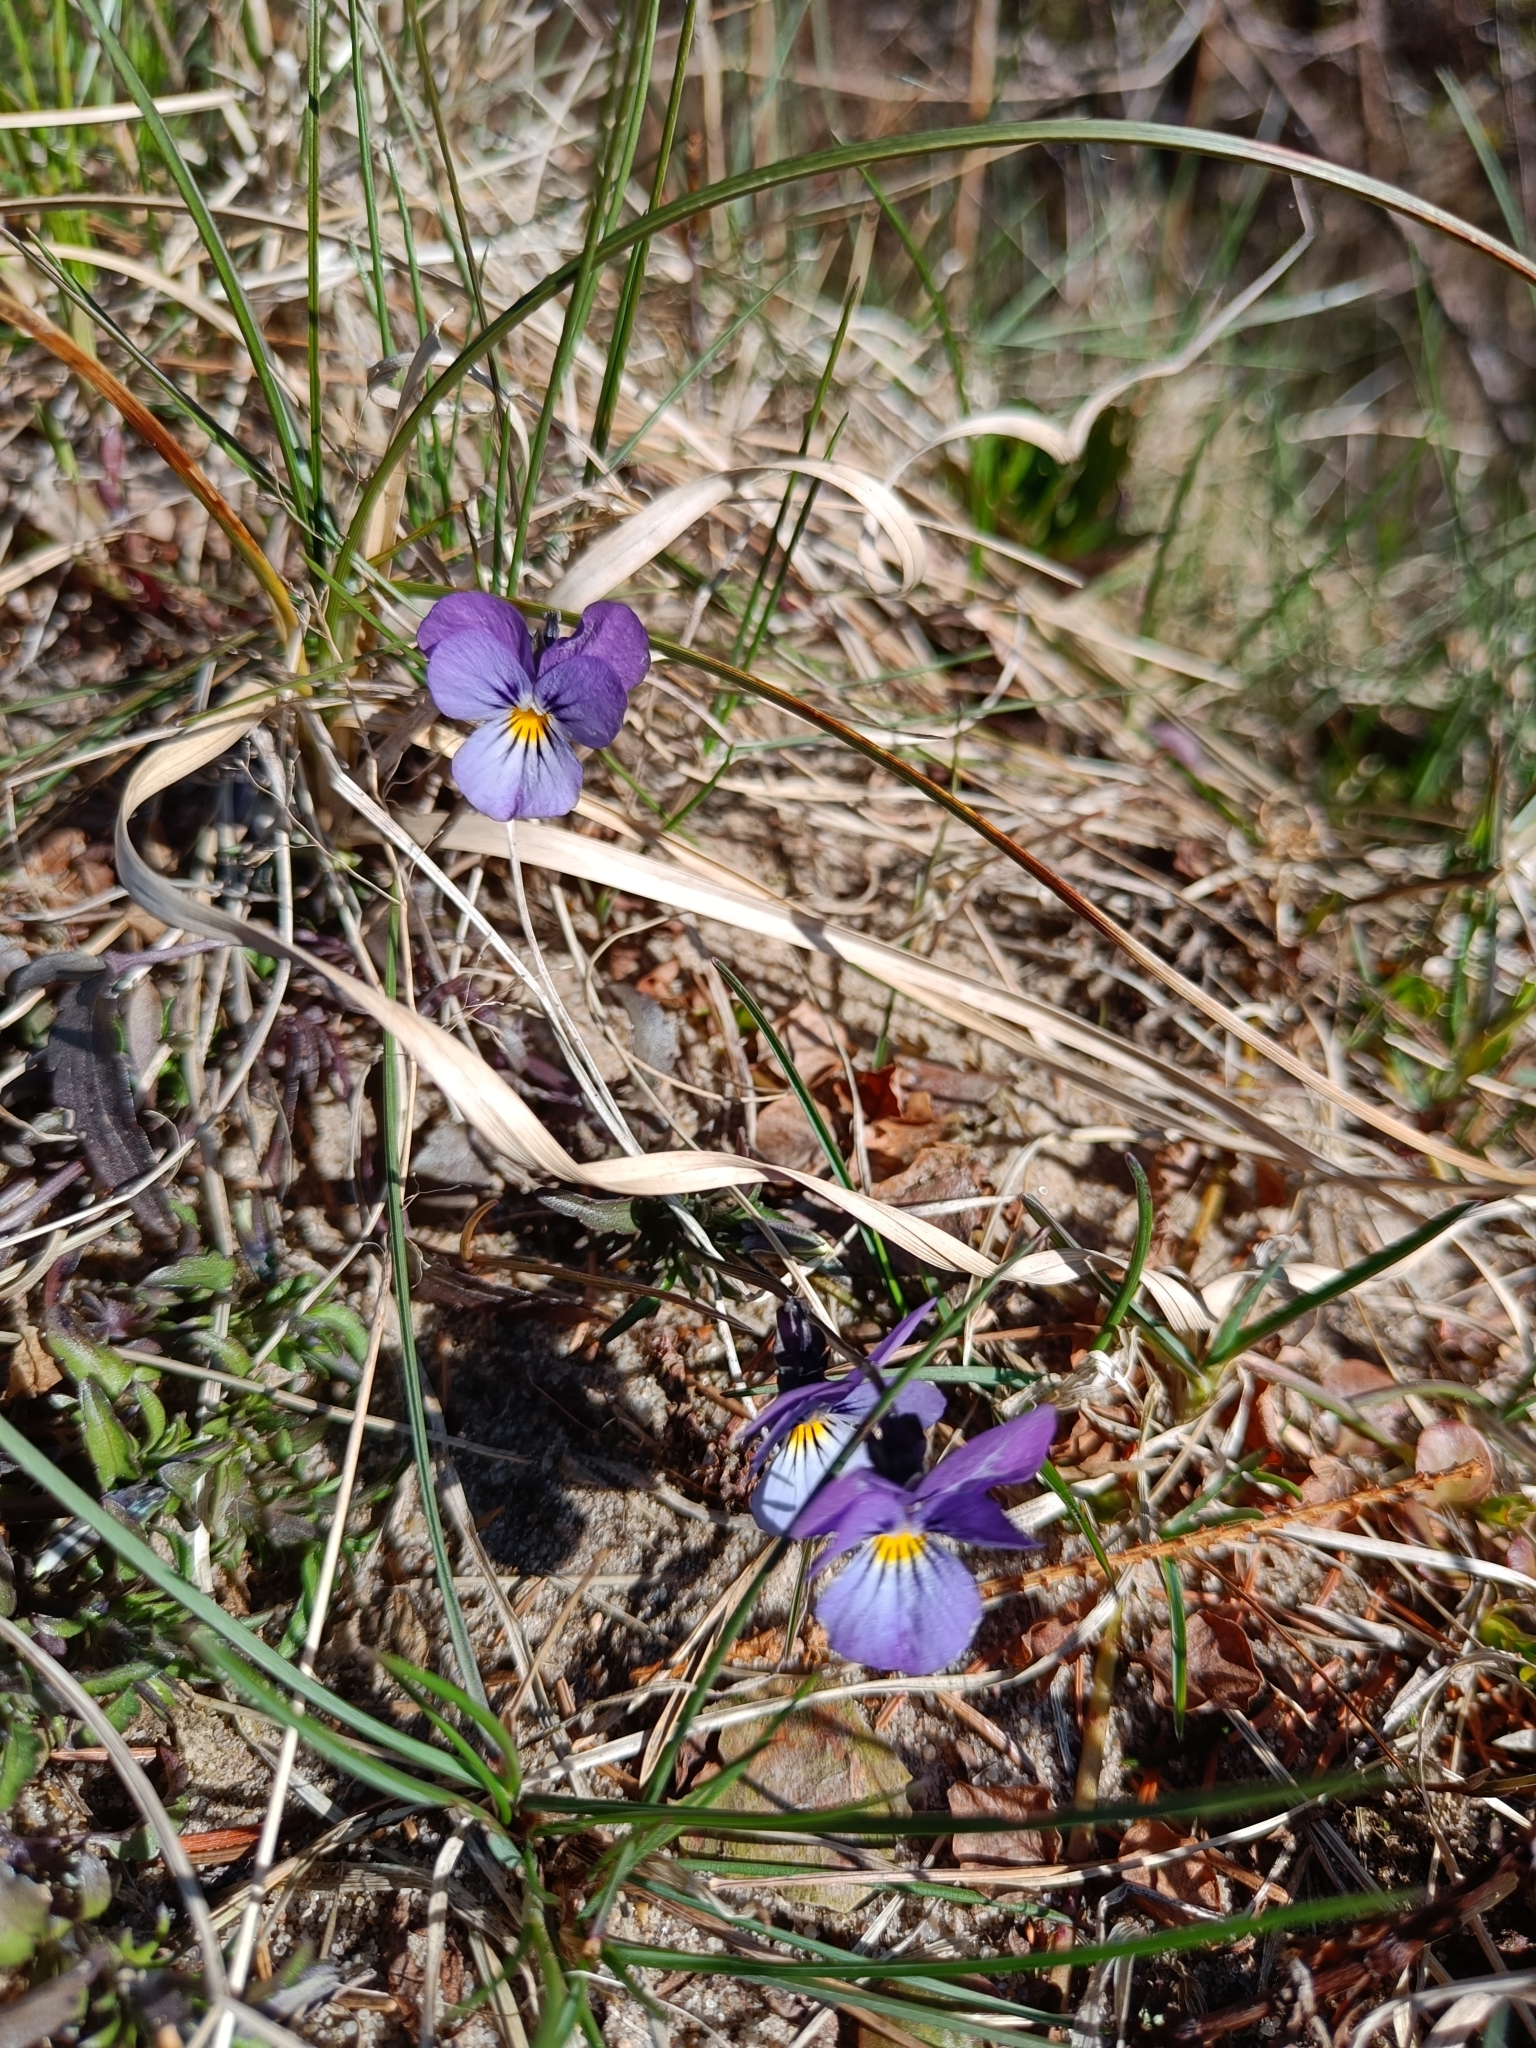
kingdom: Plantae
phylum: Tracheophyta
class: Magnoliopsida
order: Malpighiales
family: Violaceae
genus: Viola
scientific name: Viola tricolor
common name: Pansy
